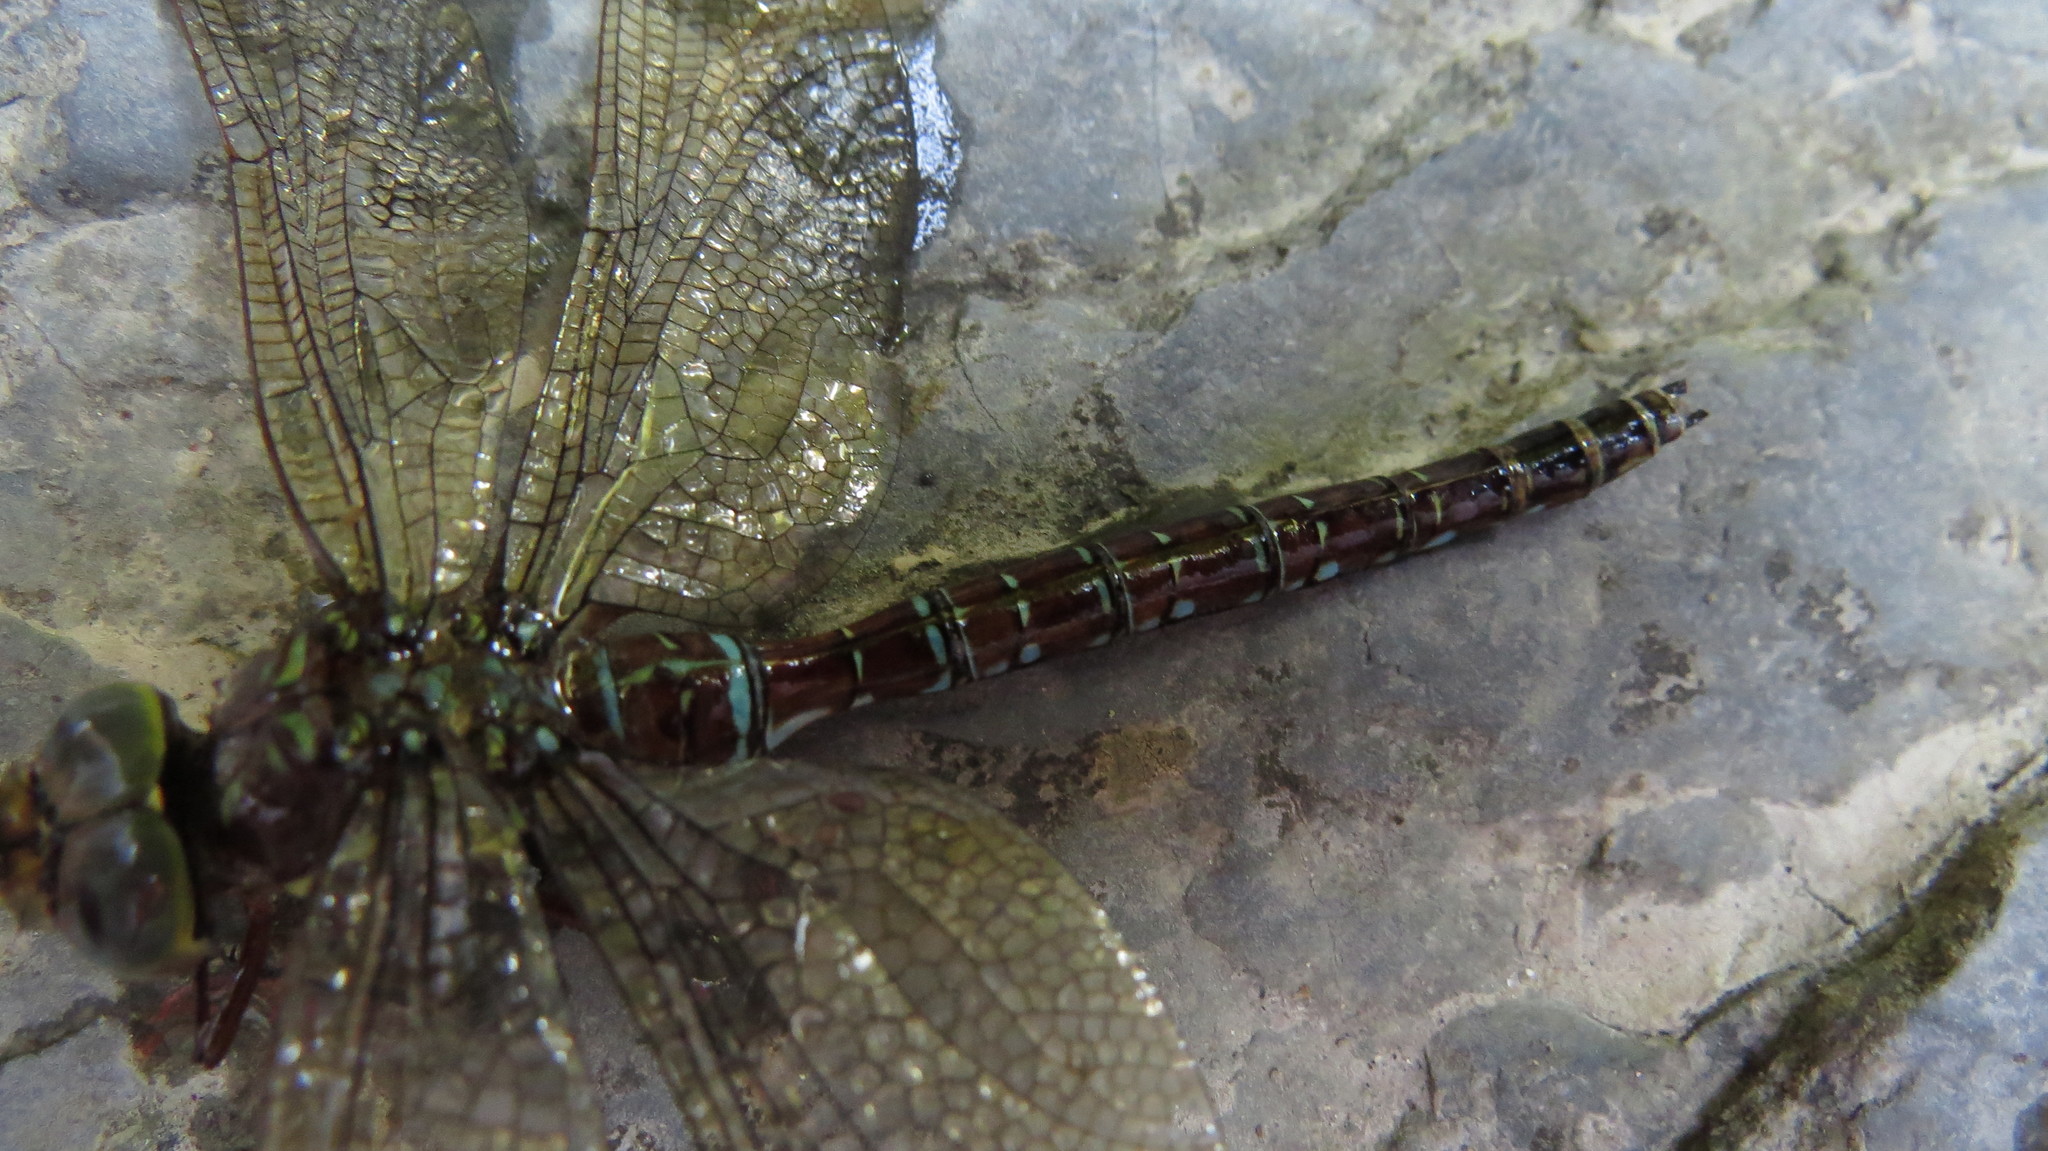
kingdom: Animalia
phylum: Arthropoda
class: Insecta
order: Odonata
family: Aeshnidae
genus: Aeshna
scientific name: Aeshna umbrosa
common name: Shadow darner
